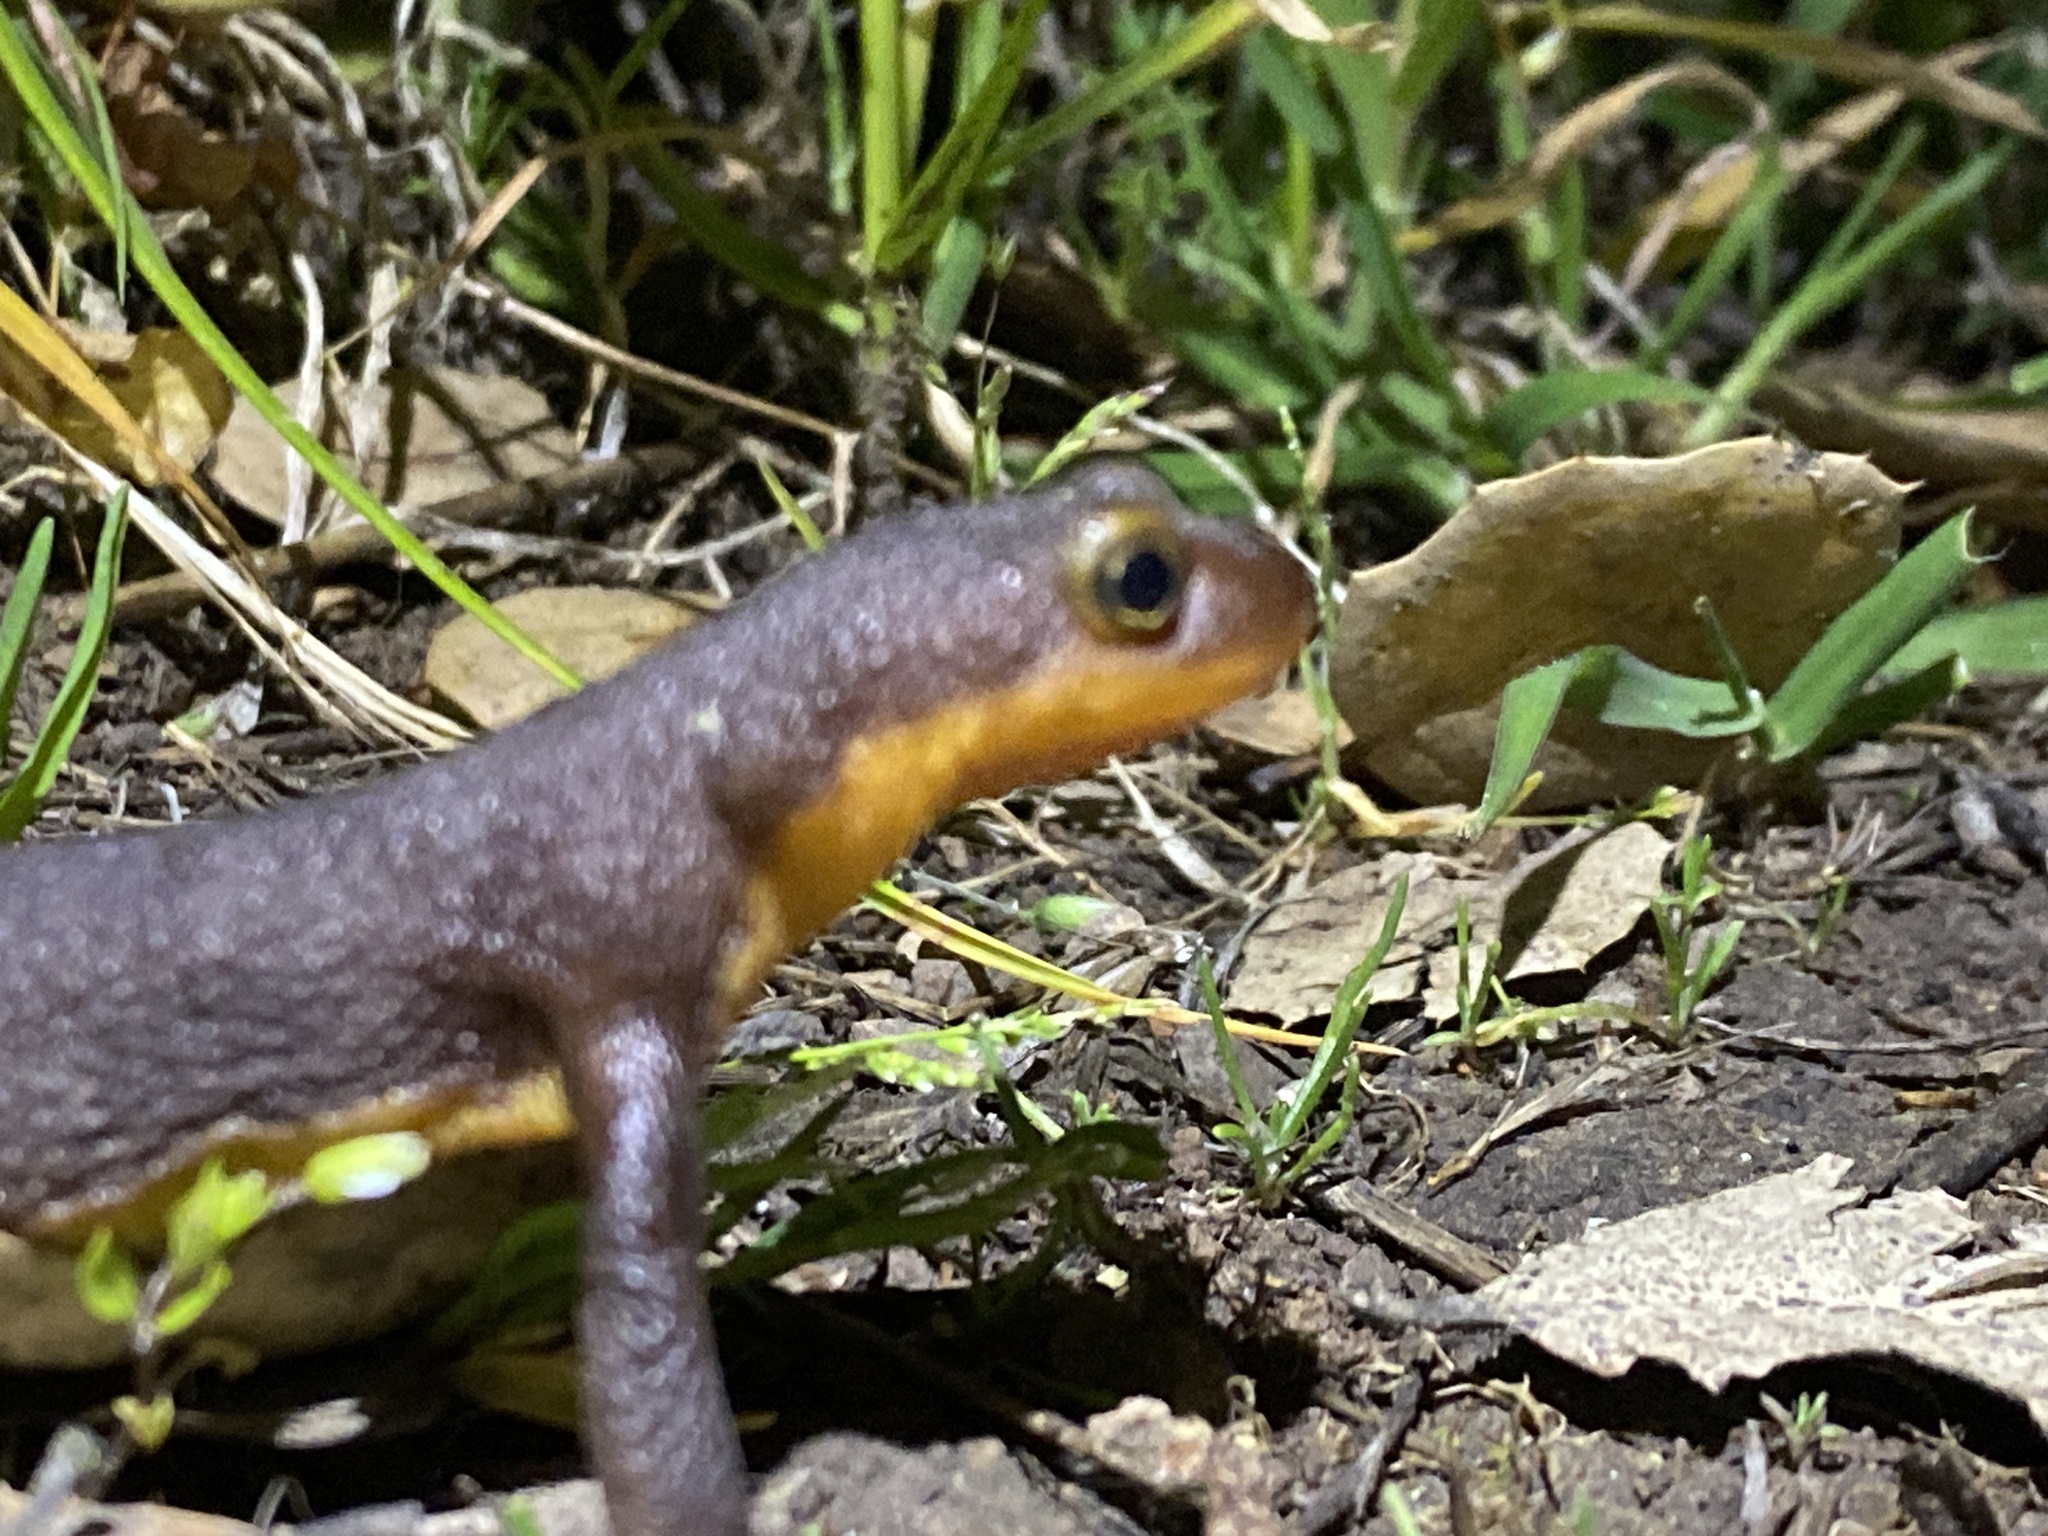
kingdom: Animalia
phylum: Chordata
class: Amphibia
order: Caudata
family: Salamandridae
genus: Taricha
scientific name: Taricha torosa
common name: California newt
